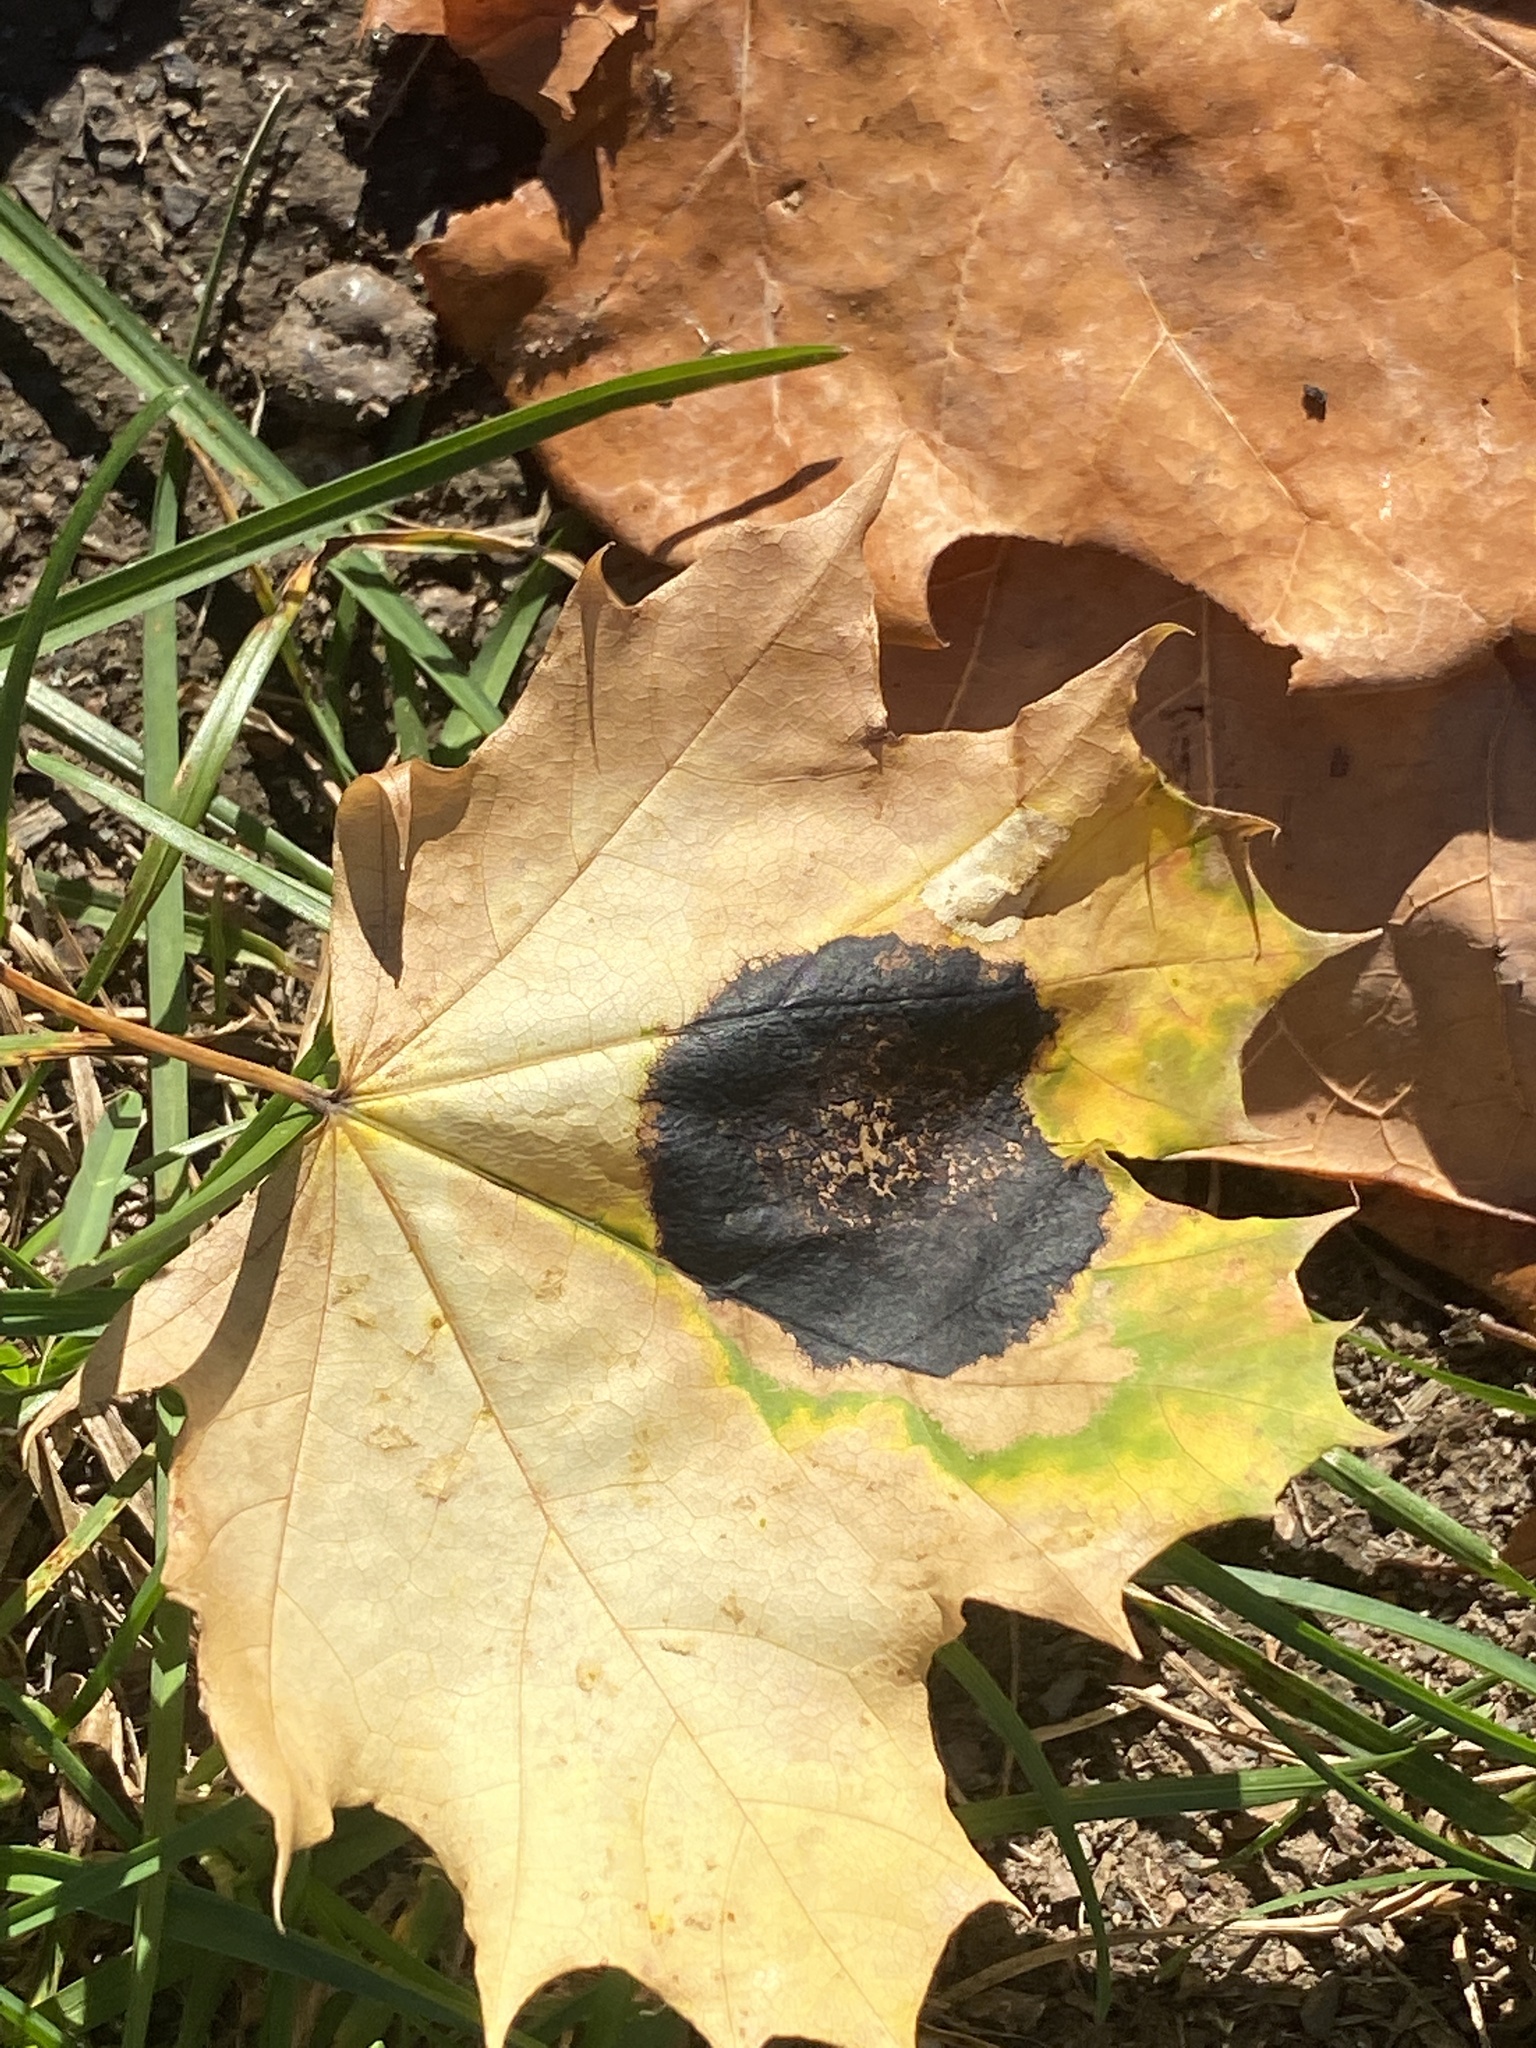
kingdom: Fungi
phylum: Ascomycota
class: Leotiomycetes
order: Rhytismatales
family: Rhytismataceae
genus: Rhytisma
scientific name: Rhytisma acerinum
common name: European tar spot
